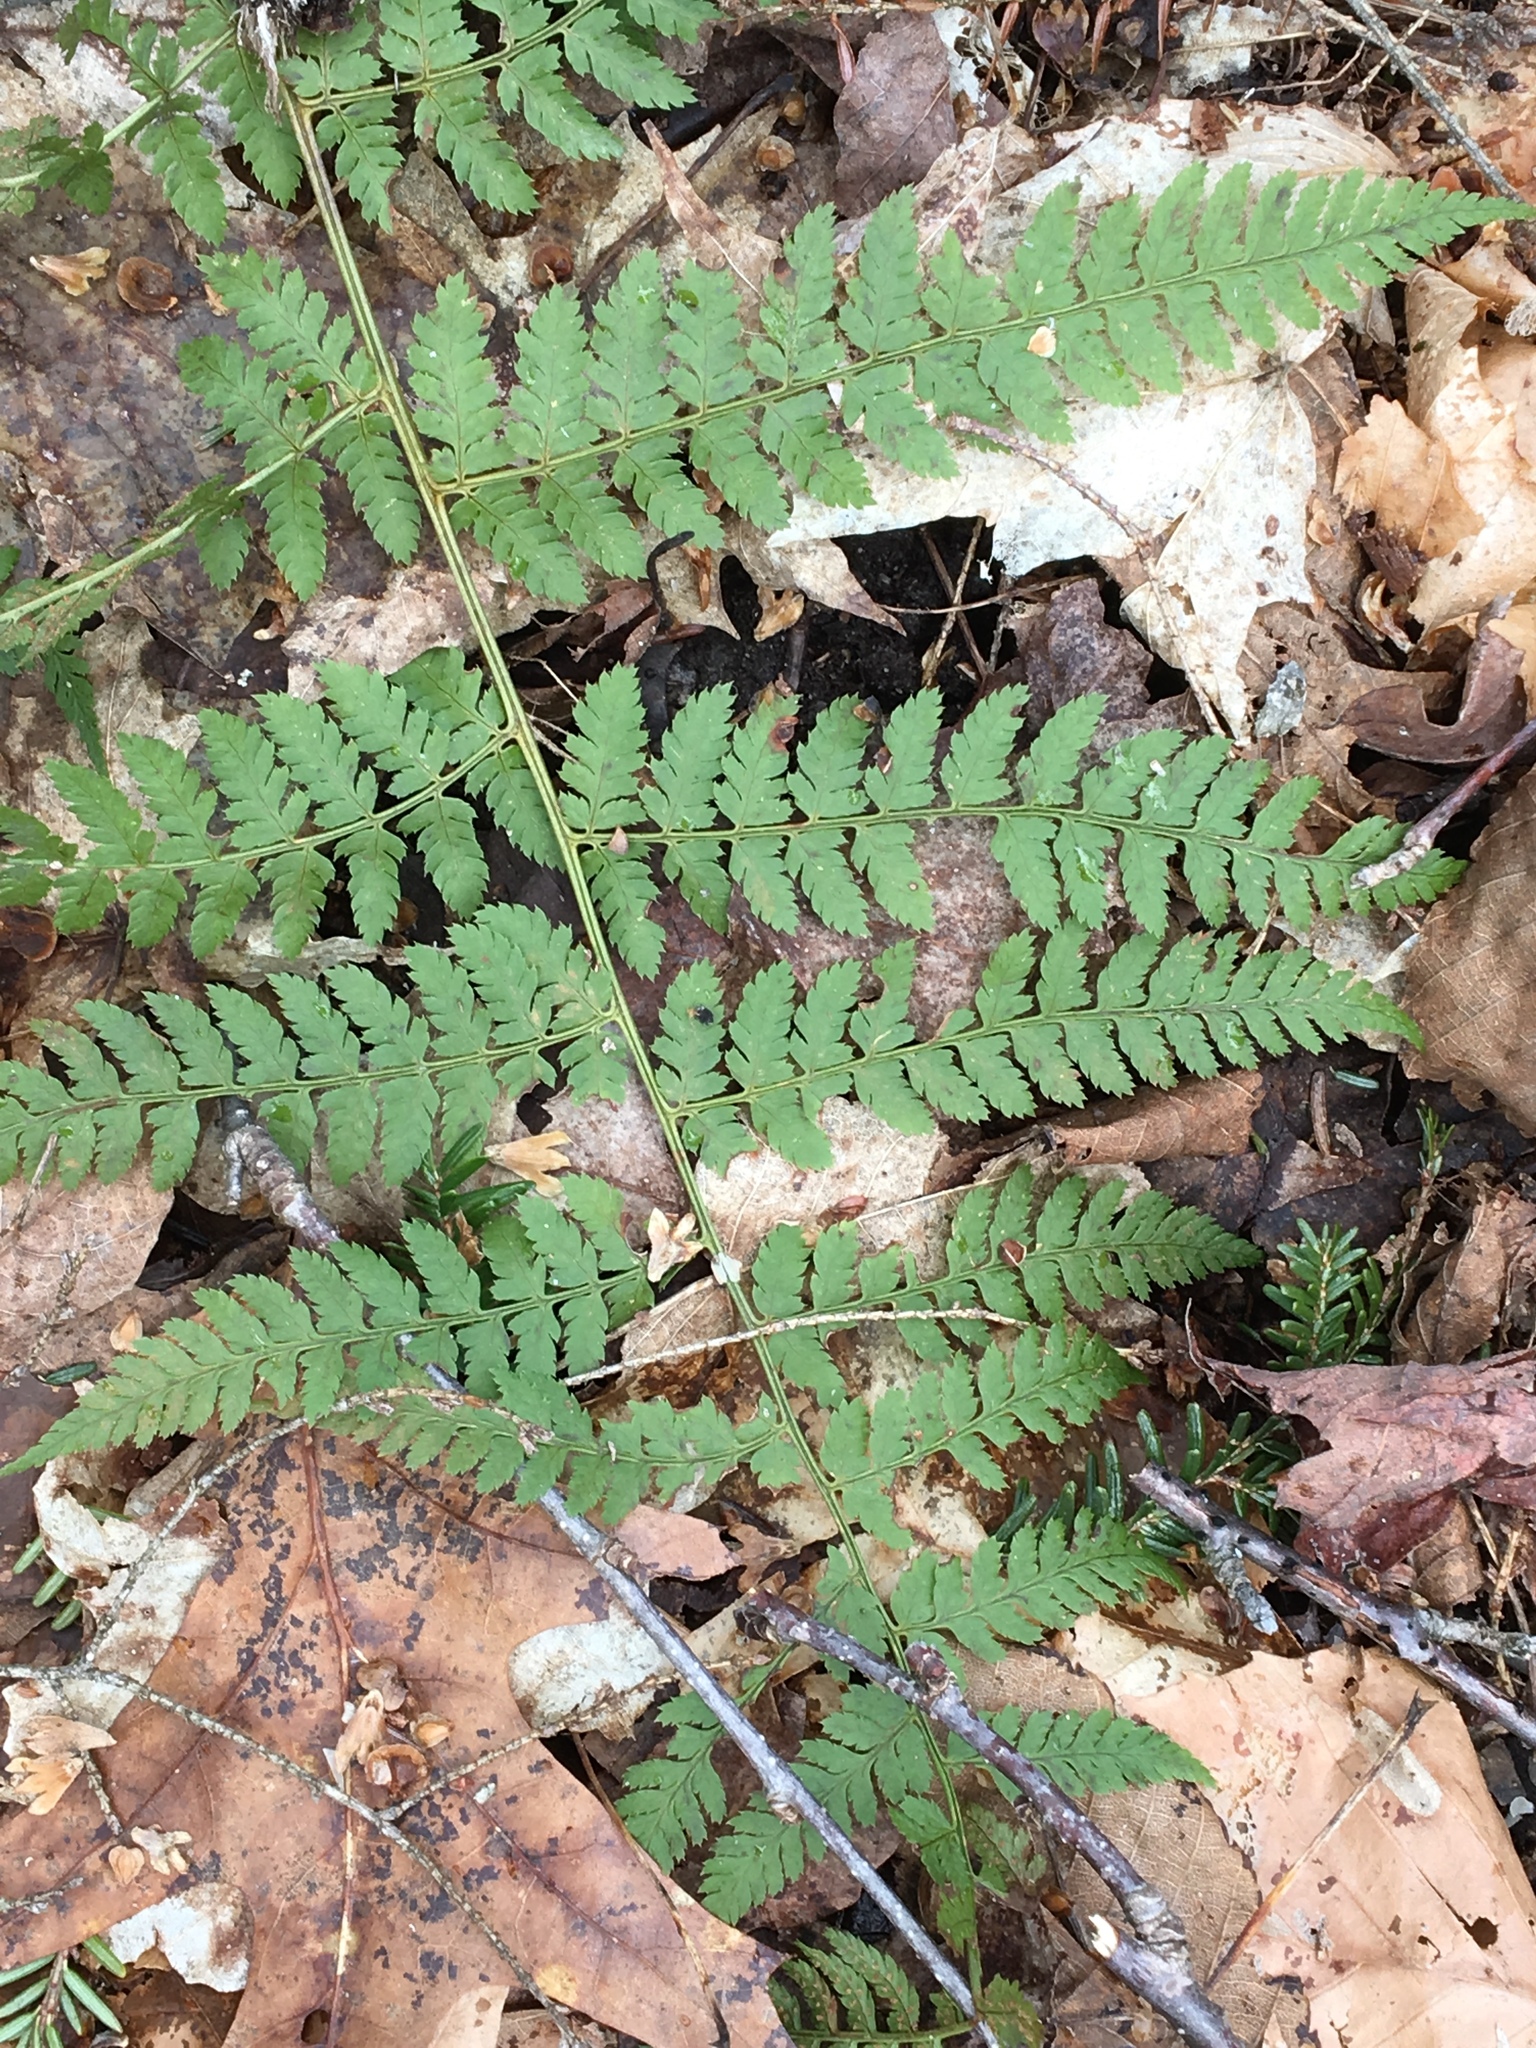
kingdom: Plantae
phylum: Tracheophyta
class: Polypodiopsida
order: Polypodiales
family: Dryopteridaceae
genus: Dryopteris
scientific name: Dryopteris intermedia
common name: Evergreen wood fern
